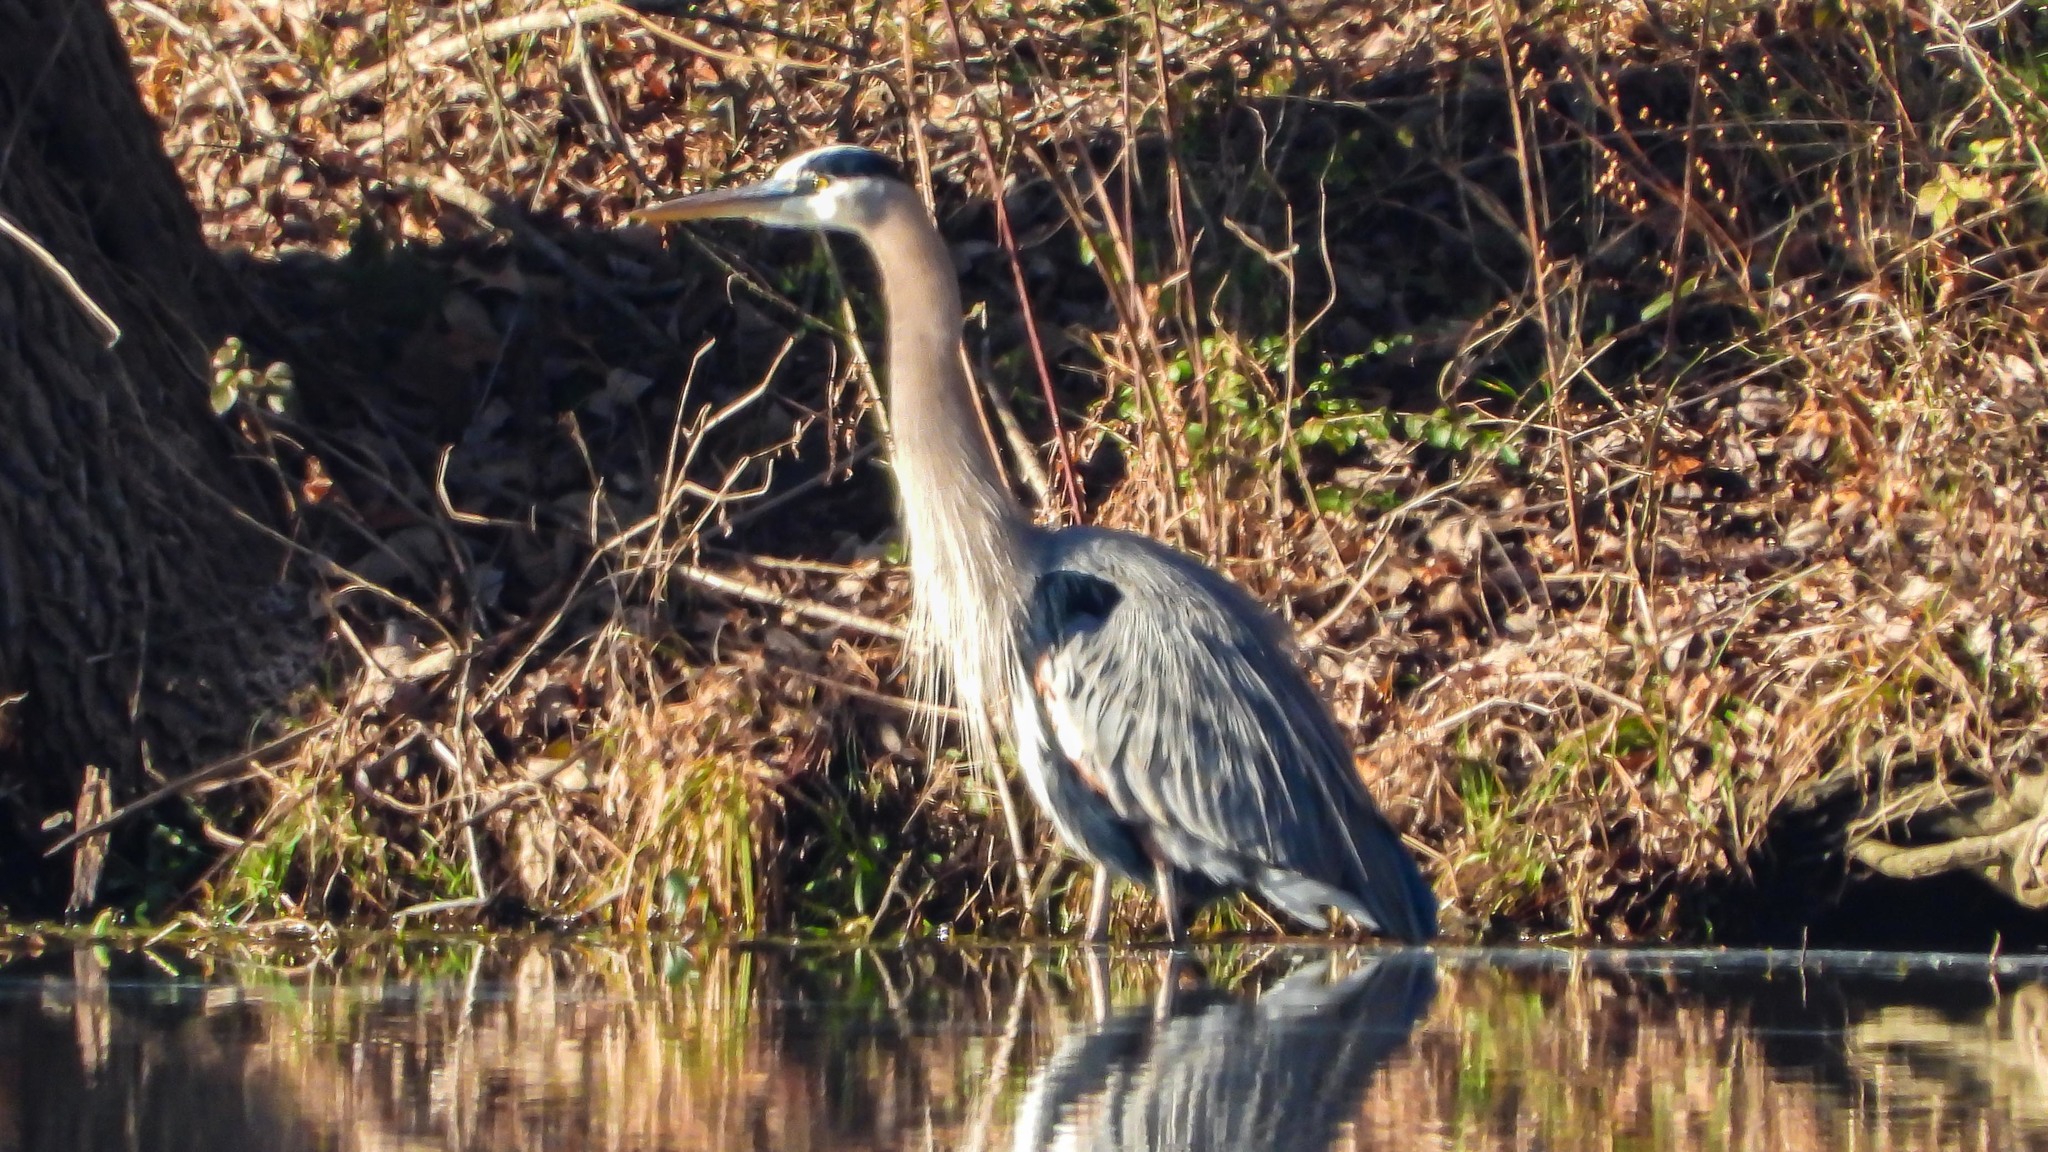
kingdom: Animalia
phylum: Chordata
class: Aves
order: Pelecaniformes
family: Ardeidae
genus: Ardea
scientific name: Ardea herodias
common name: Great blue heron
